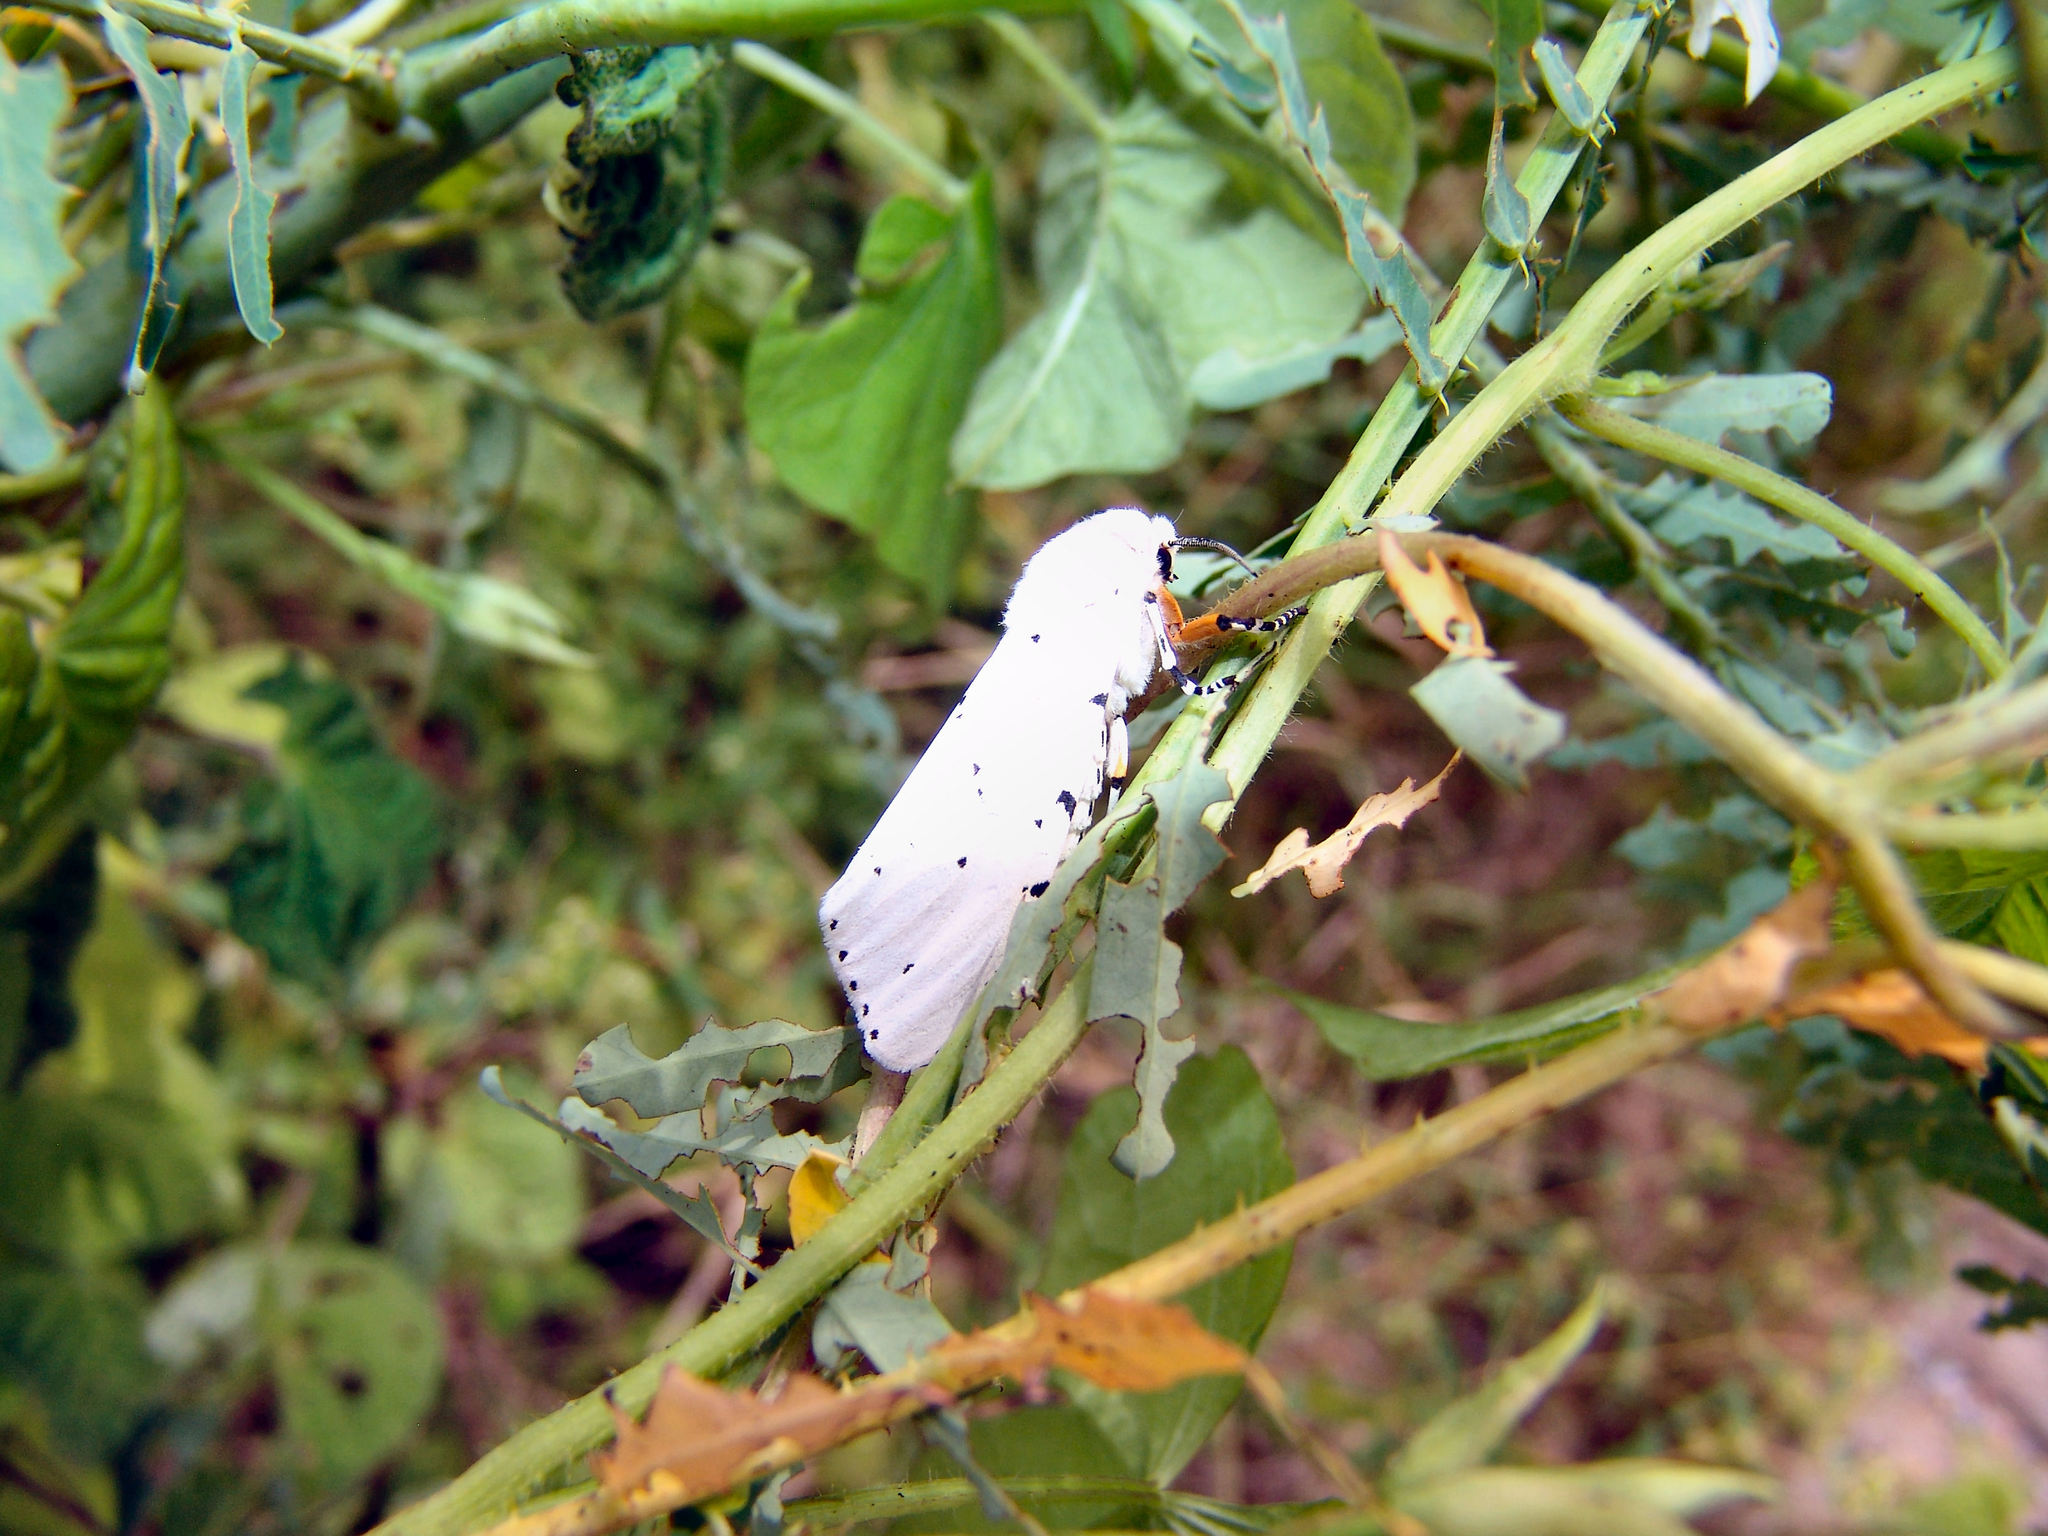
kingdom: Animalia
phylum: Arthropoda
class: Insecta
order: Lepidoptera
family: Erebidae
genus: Estigmene
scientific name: Estigmene acrea
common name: Salt marsh moth
